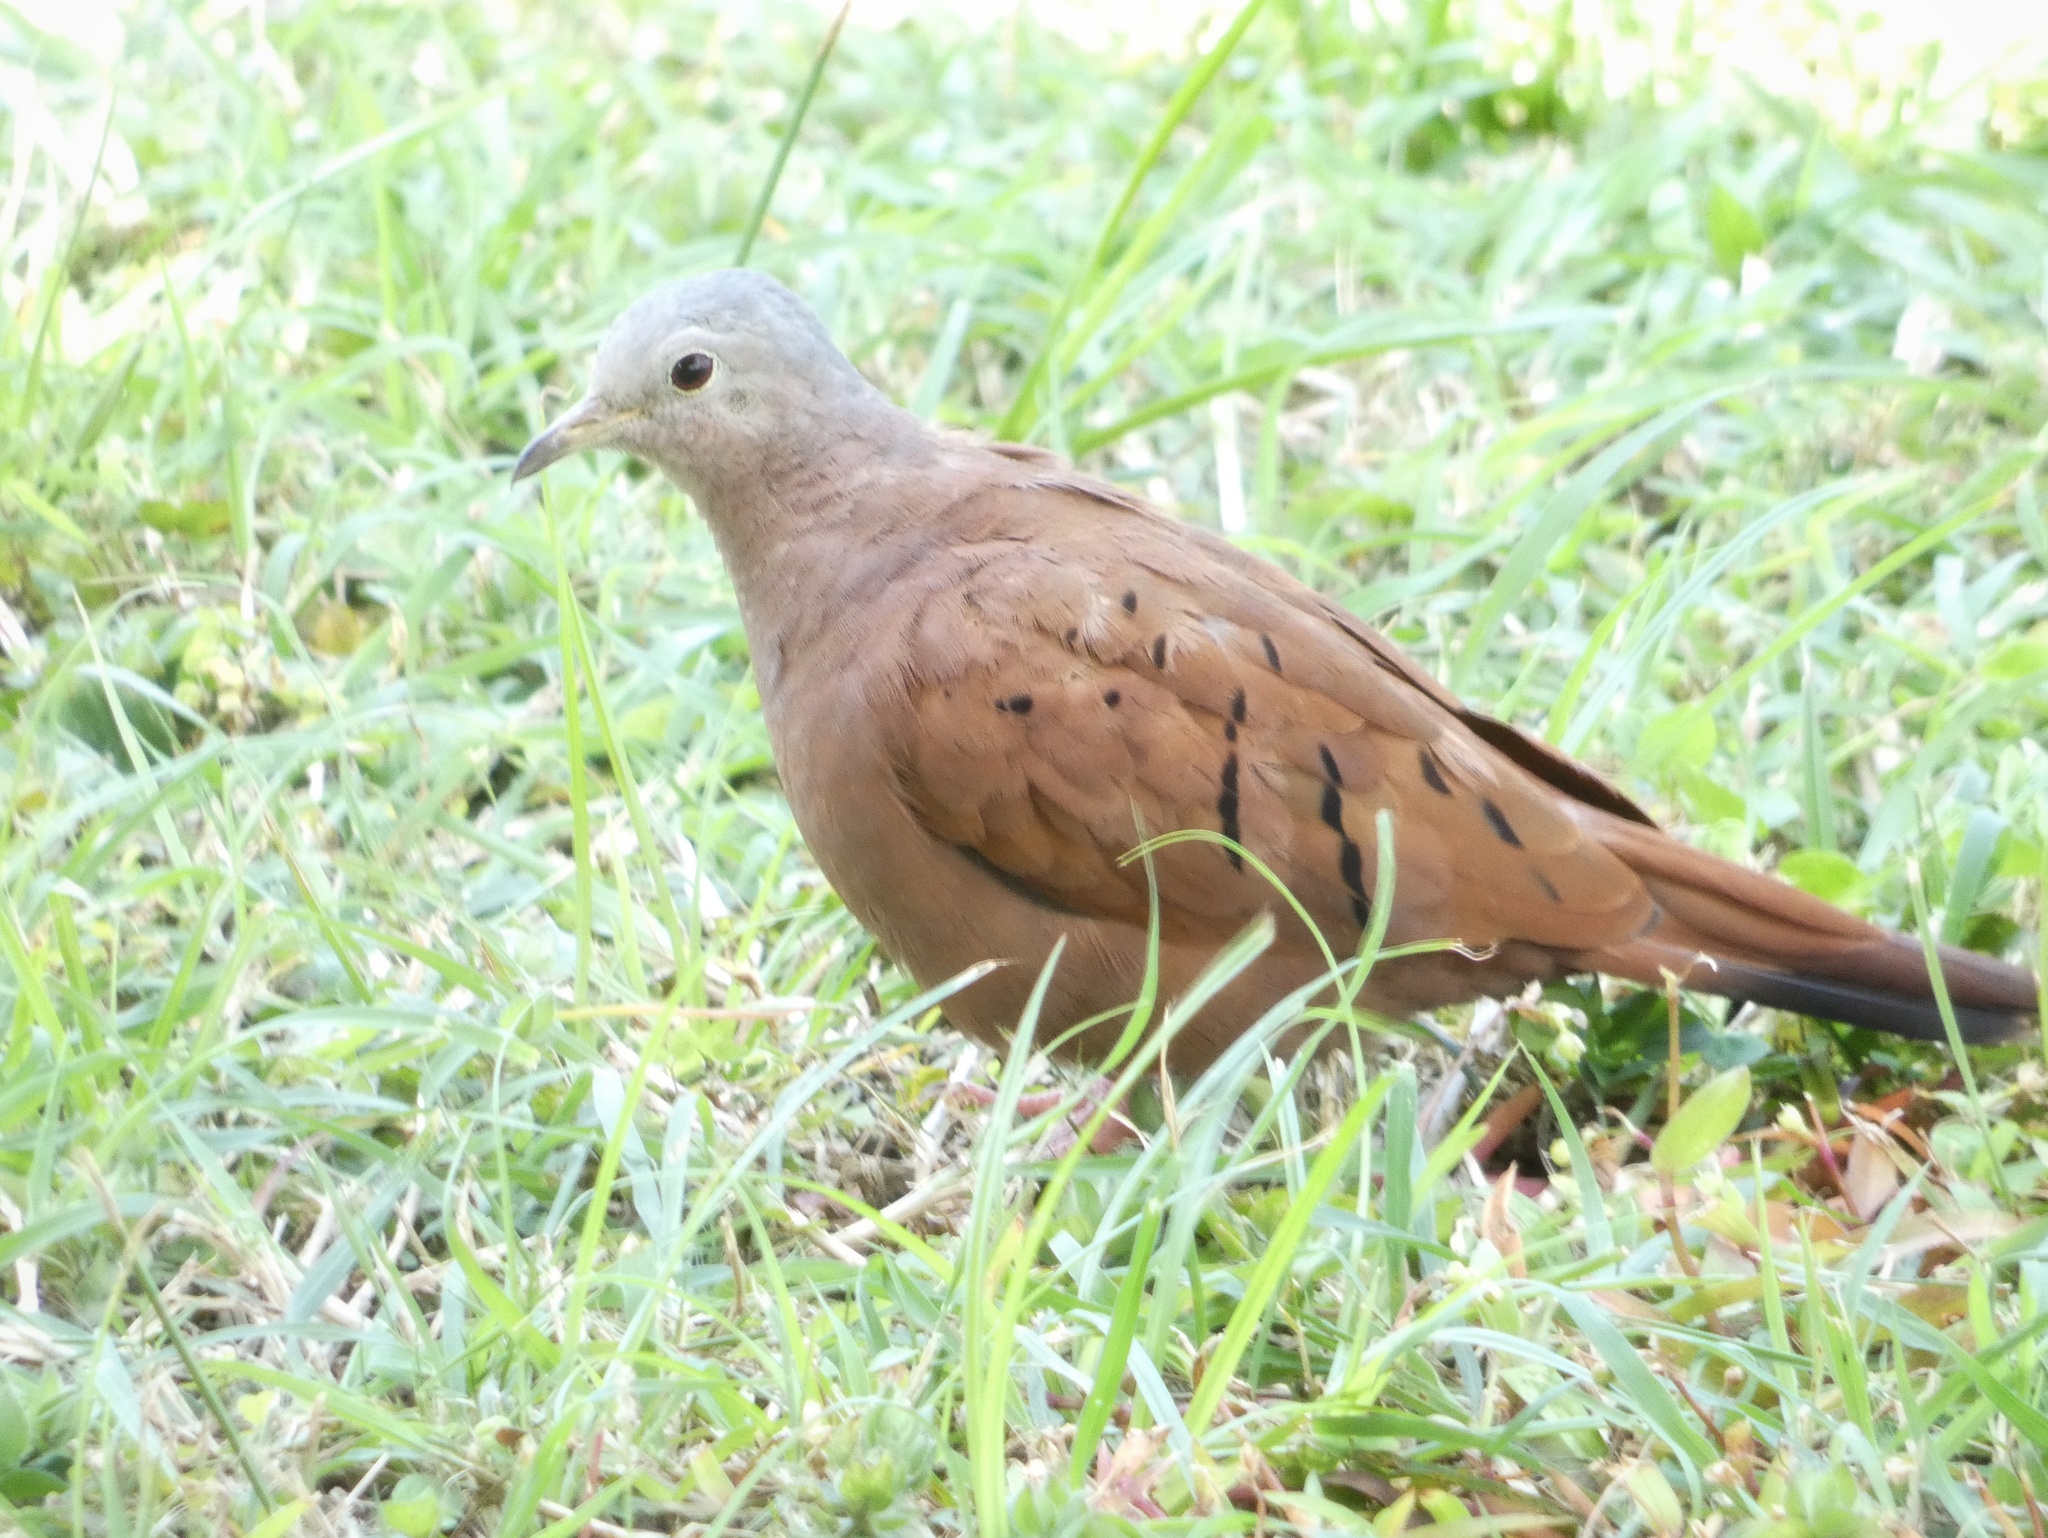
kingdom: Animalia
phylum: Chordata
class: Aves
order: Columbiformes
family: Columbidae
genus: Columbina
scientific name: Columbina talpacoti
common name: Ruddy ground dove
